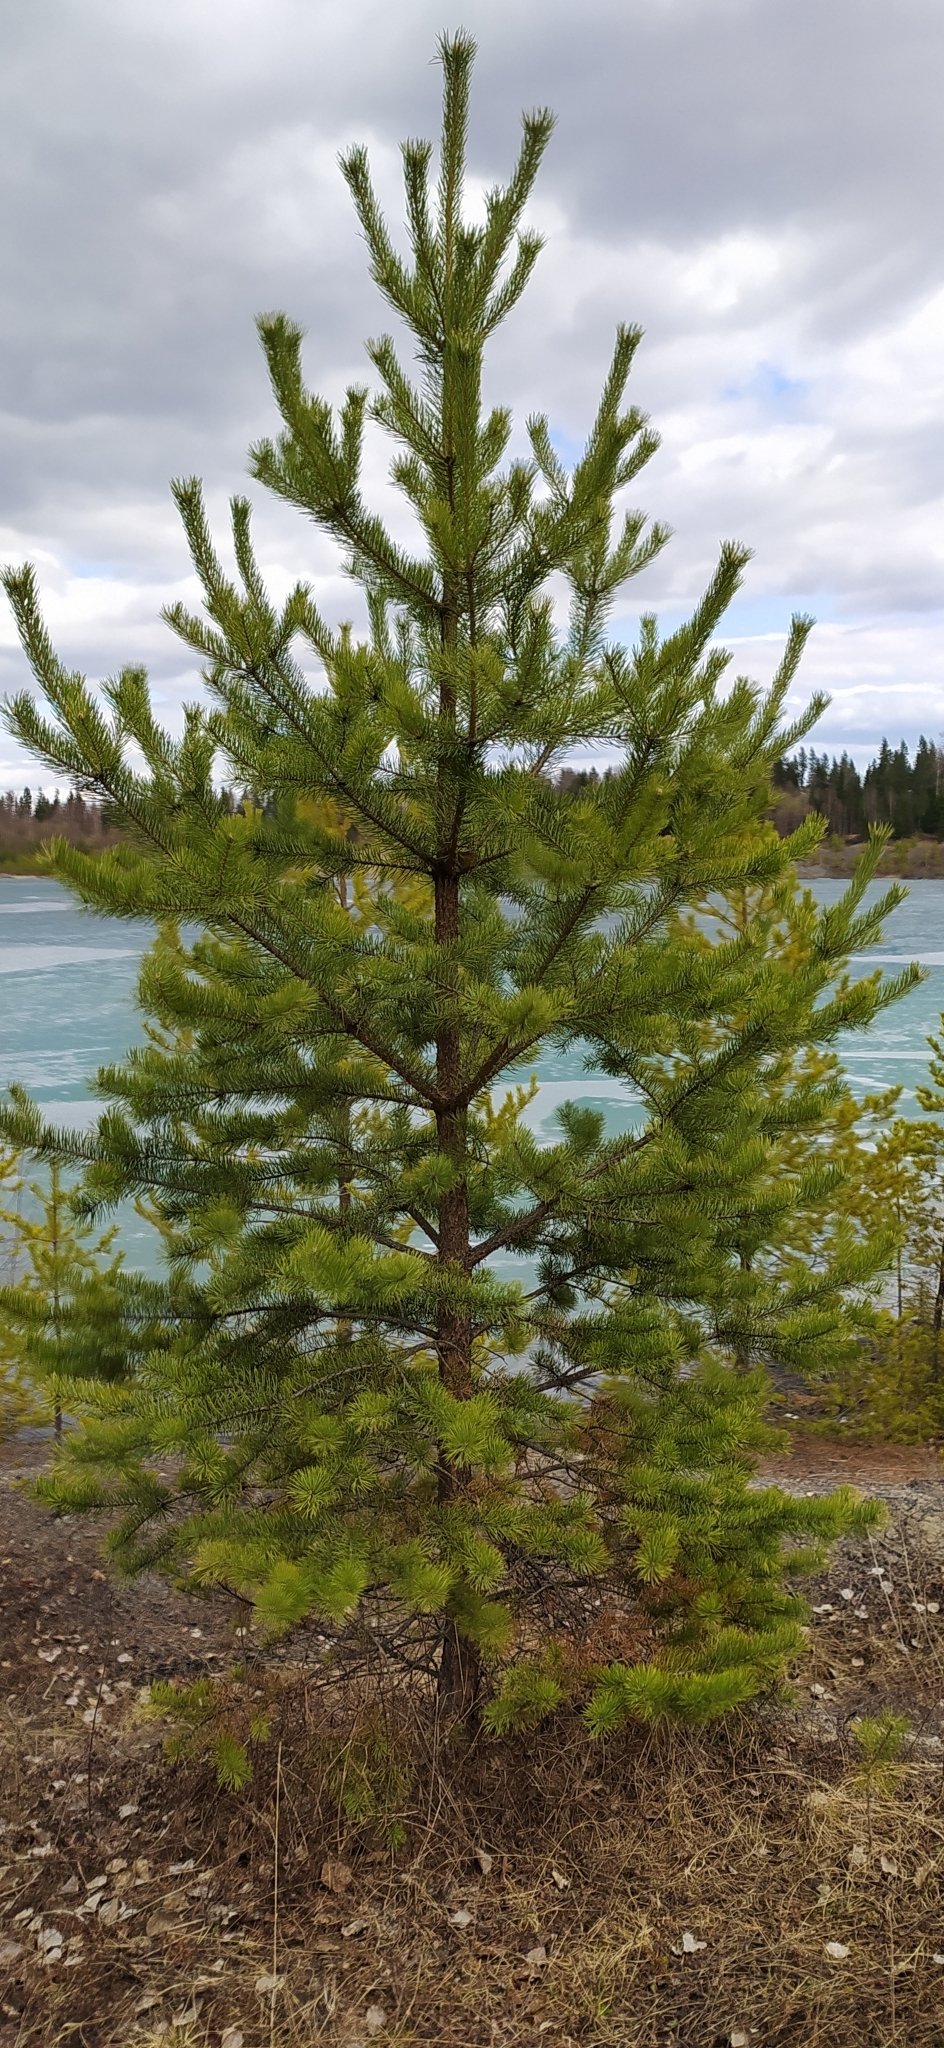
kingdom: Plantae
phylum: Tracheophyta
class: Pinopsida
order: Pinales
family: Pinaceae
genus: Pinus
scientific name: Pinus sylvestris
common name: Scots pine
